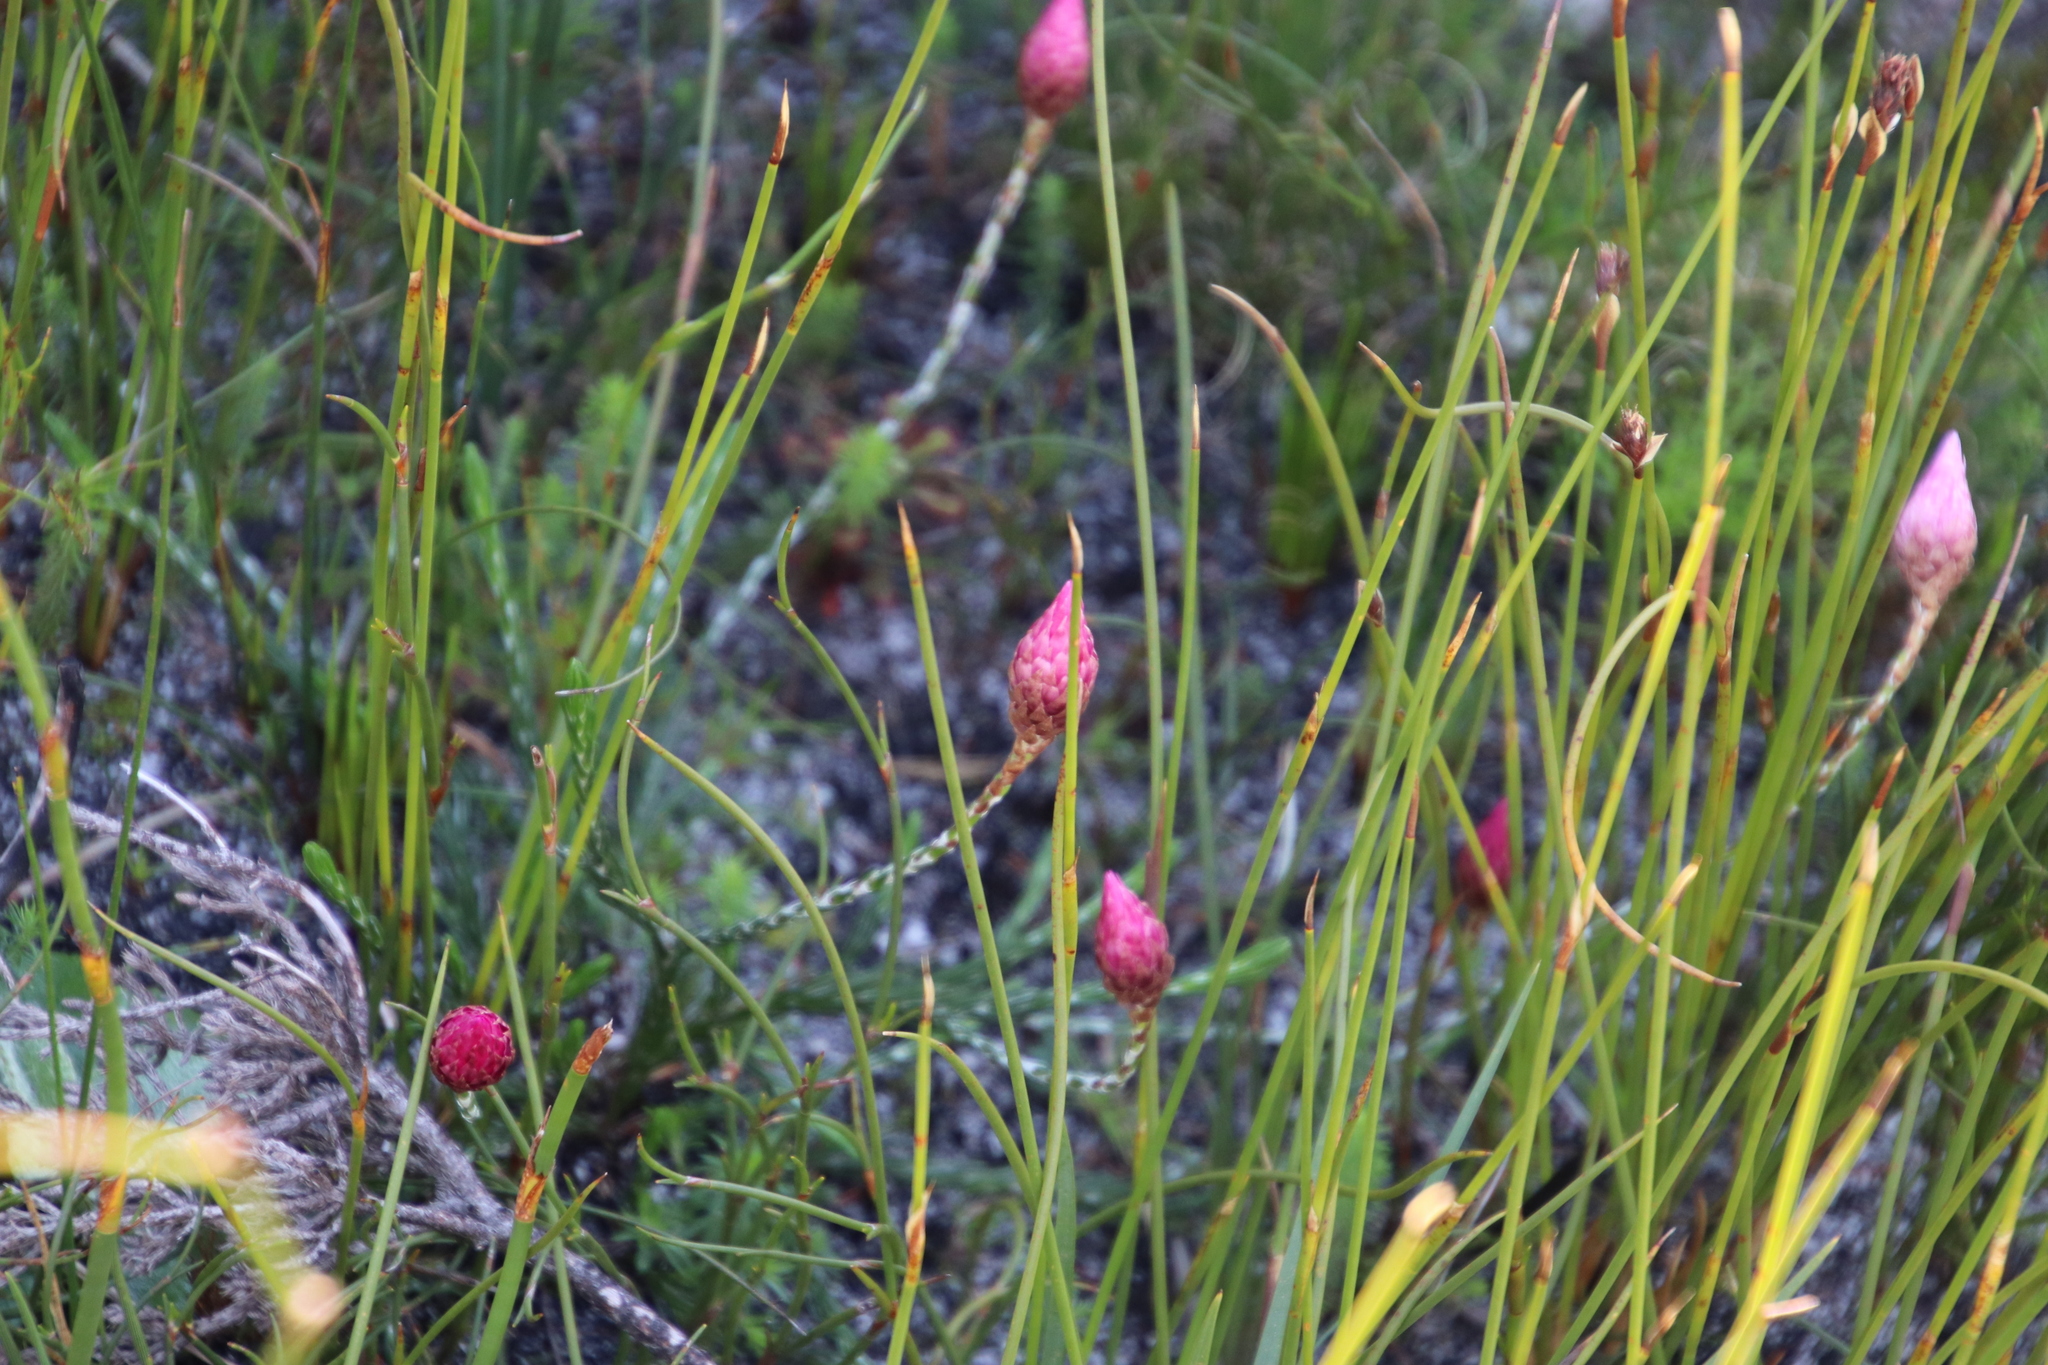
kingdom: Plantae
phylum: Tracheophyta
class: Magnoliopsida
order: Asterales
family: Asteraceae
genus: Syncarpha
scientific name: Syncarpha canescens
